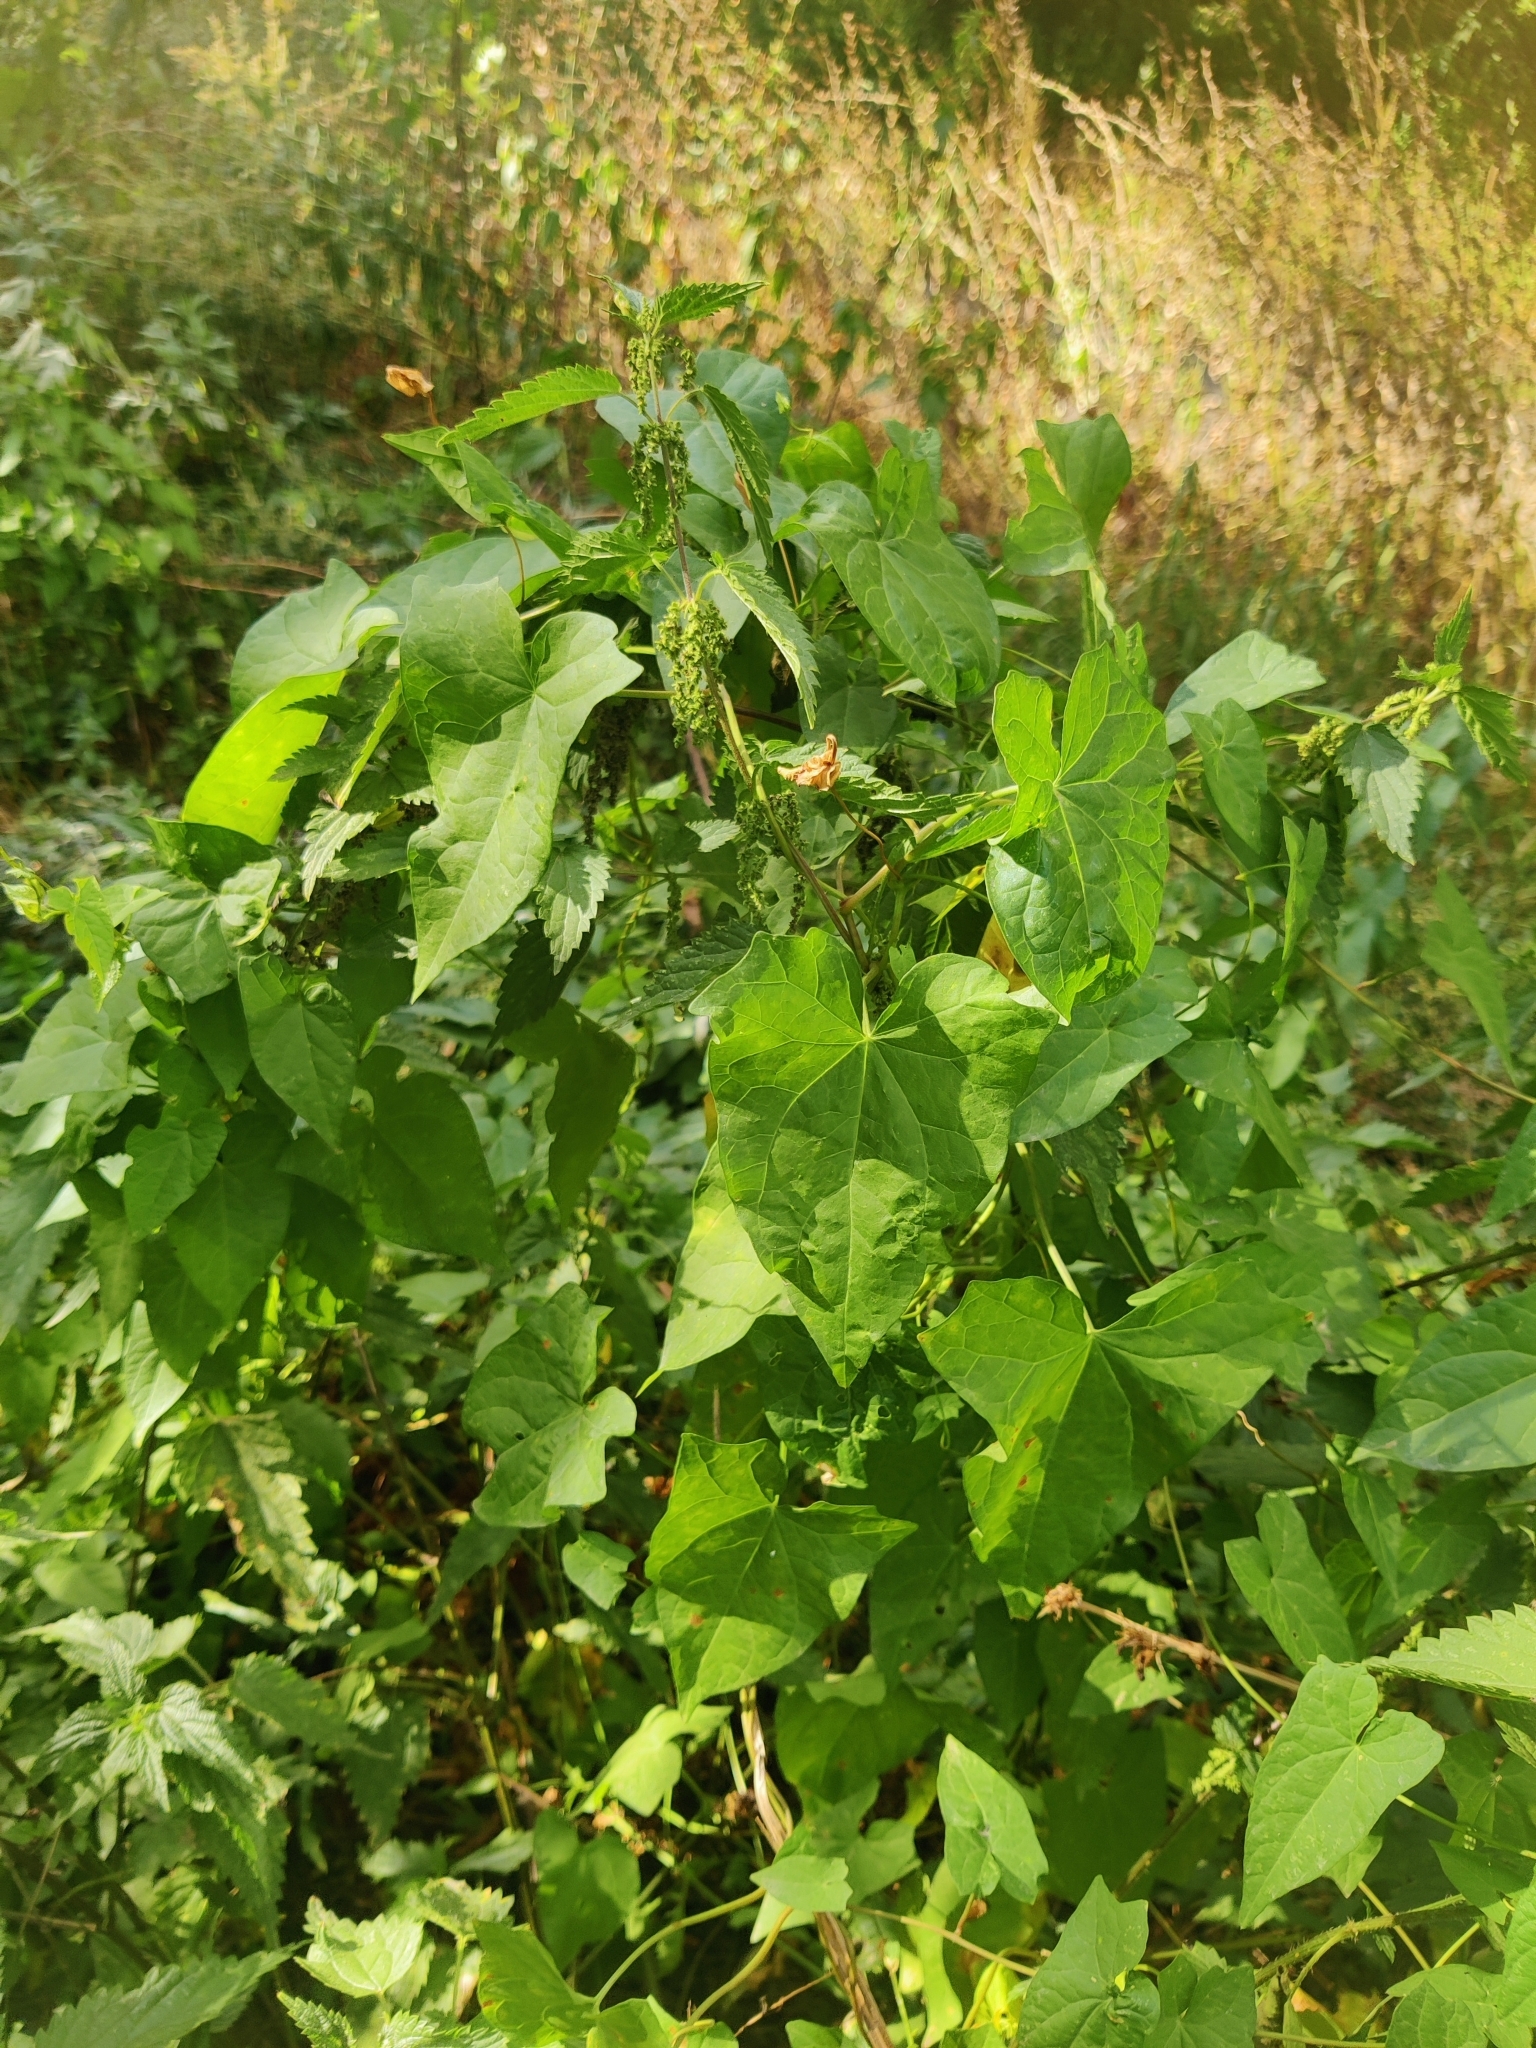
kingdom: Plantae
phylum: Tracheophyta
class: Magnoliopsida
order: Solanales
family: Convolvulaceae
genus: Calystegia
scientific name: Calystegia sepium
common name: Hedge bindweed
